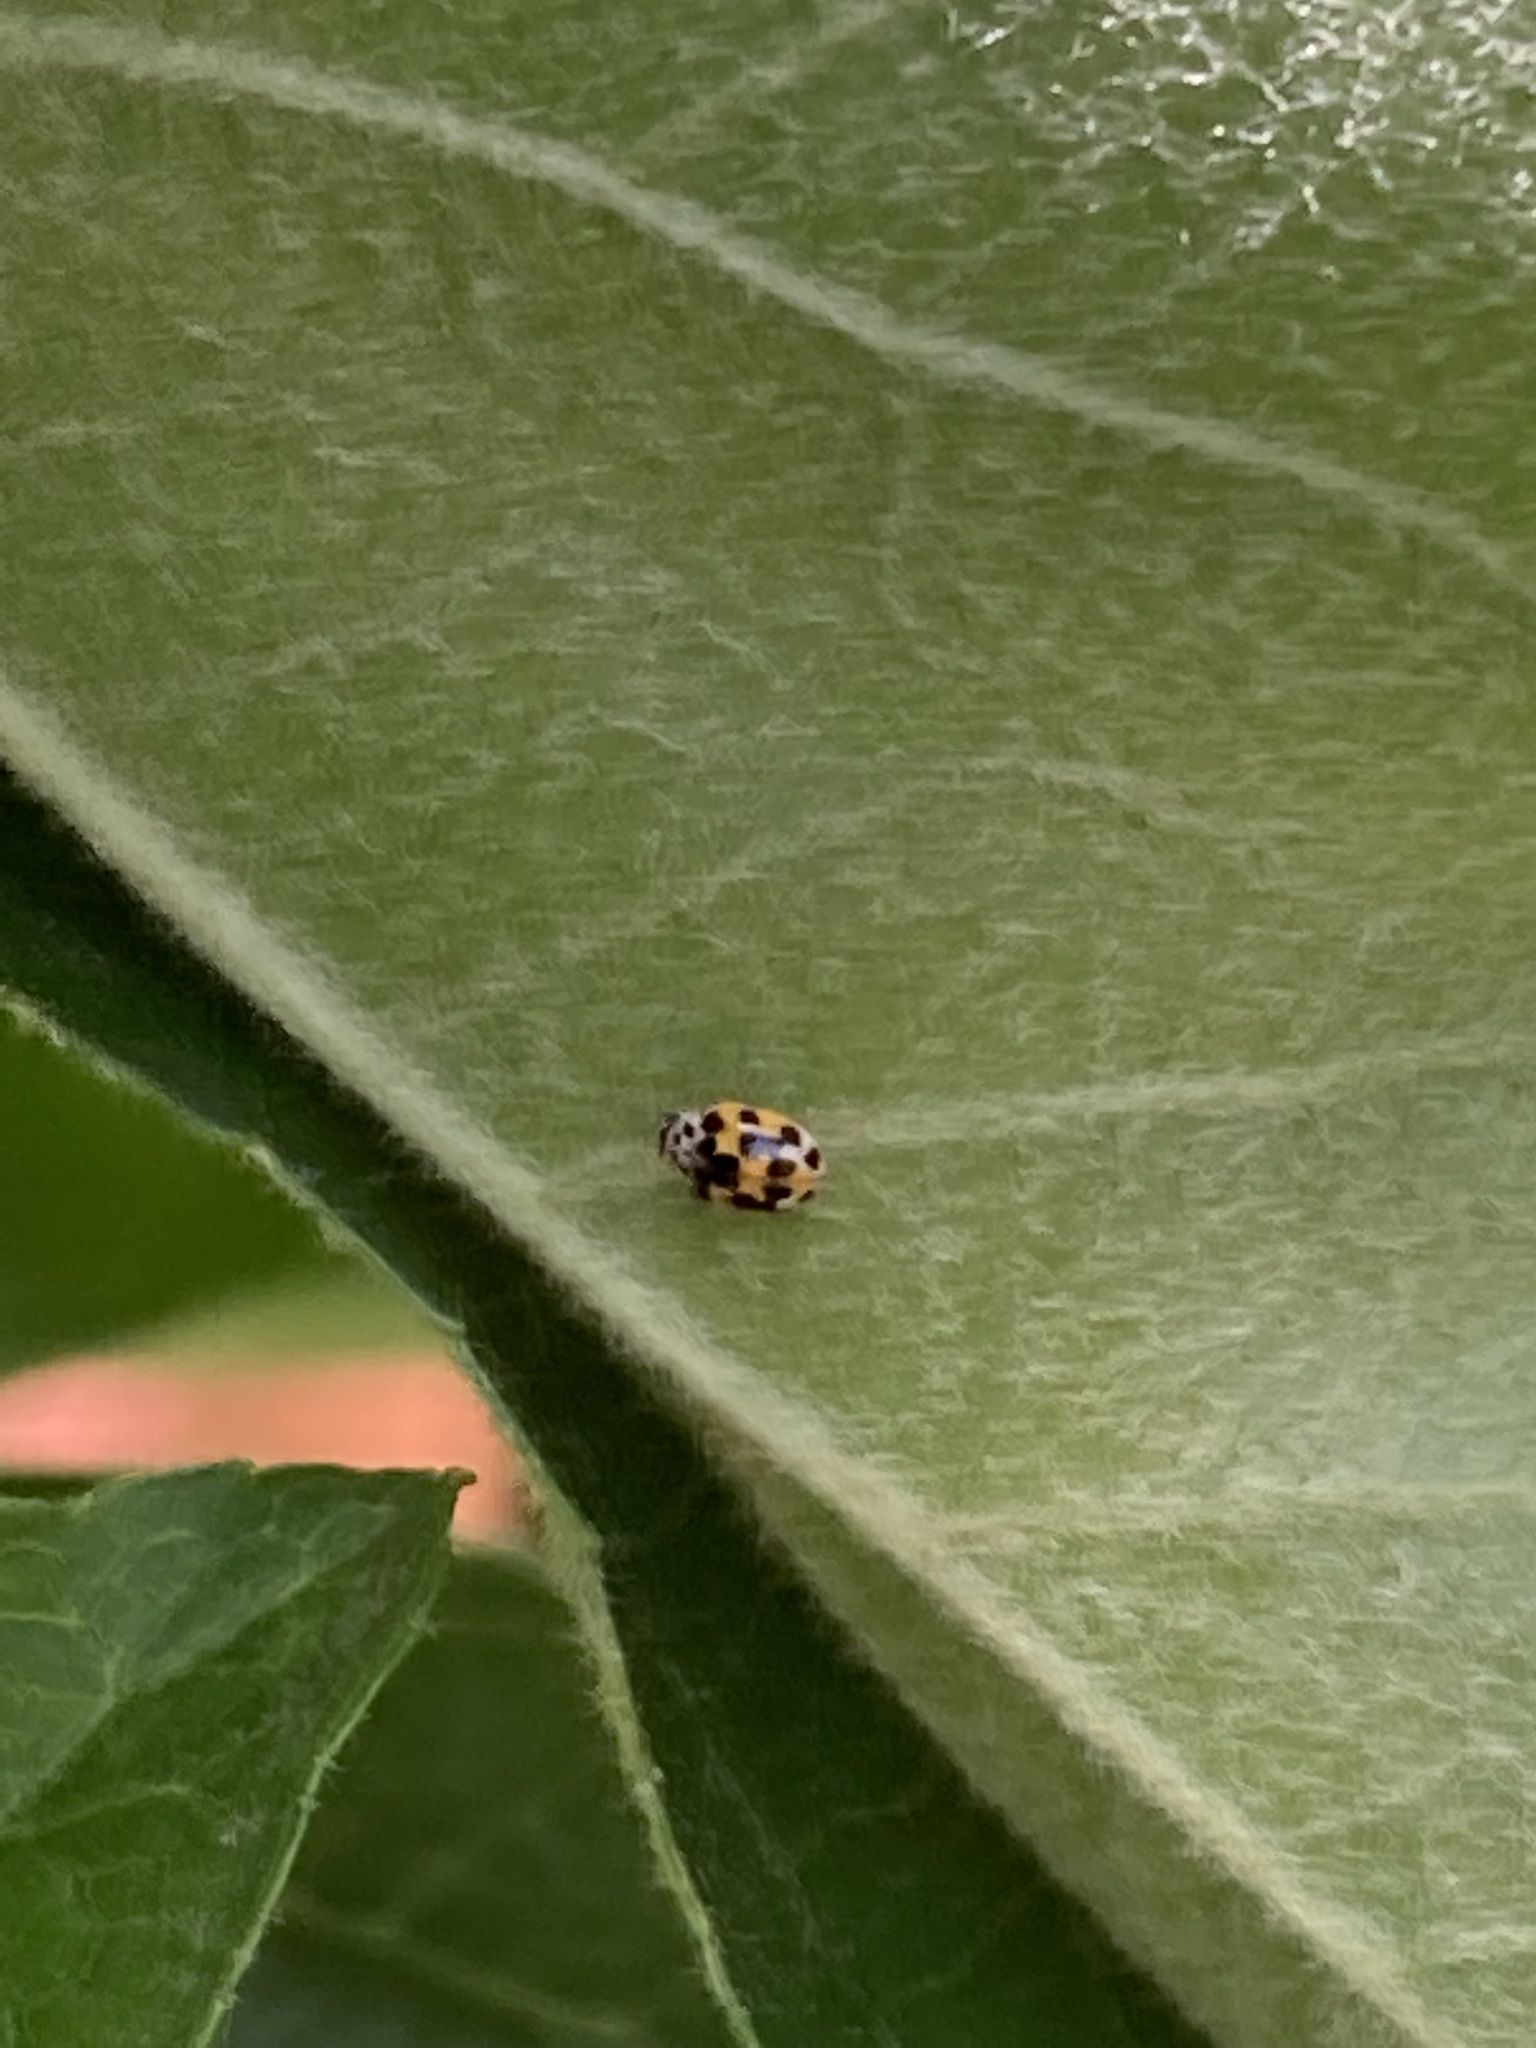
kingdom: Animalia
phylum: Arthropoda
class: Insecta
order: Coleoptera
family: Coccinellidae
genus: Psyllobora
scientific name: Psyllobora vigintimaculata
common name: Ladybird beetle
